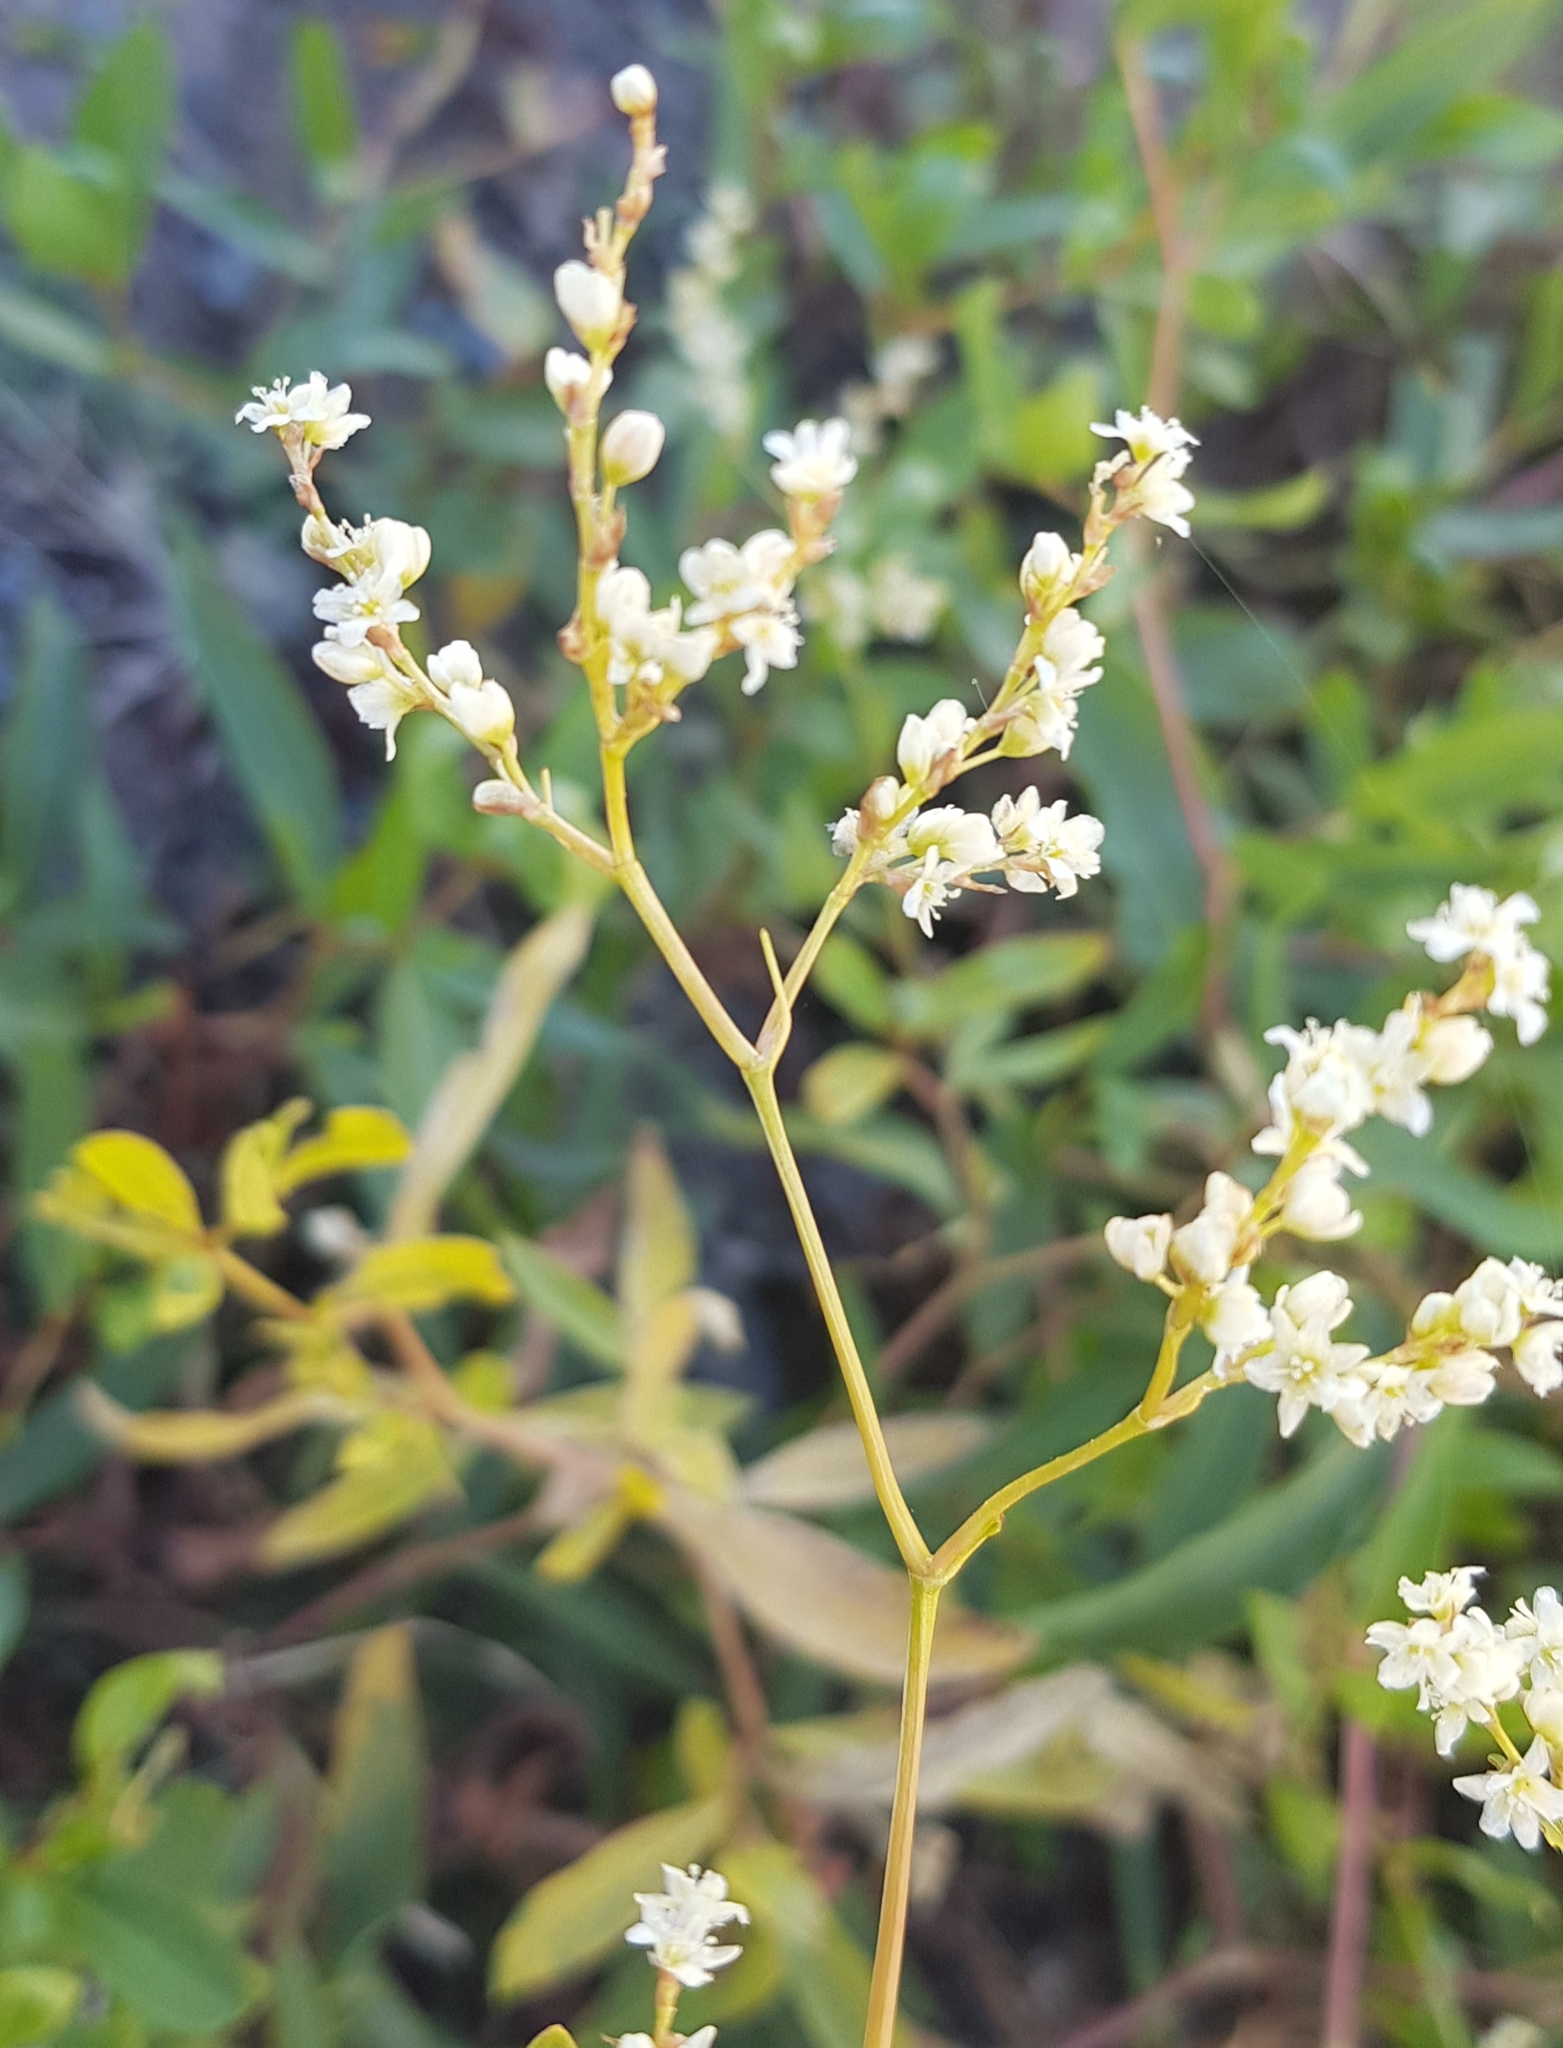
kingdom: Plantae
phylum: Tracheophyta
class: Magnoliopsida
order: Caryophyllales
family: Polygonaceae
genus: Koenigia
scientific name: Koenigia divaricata
